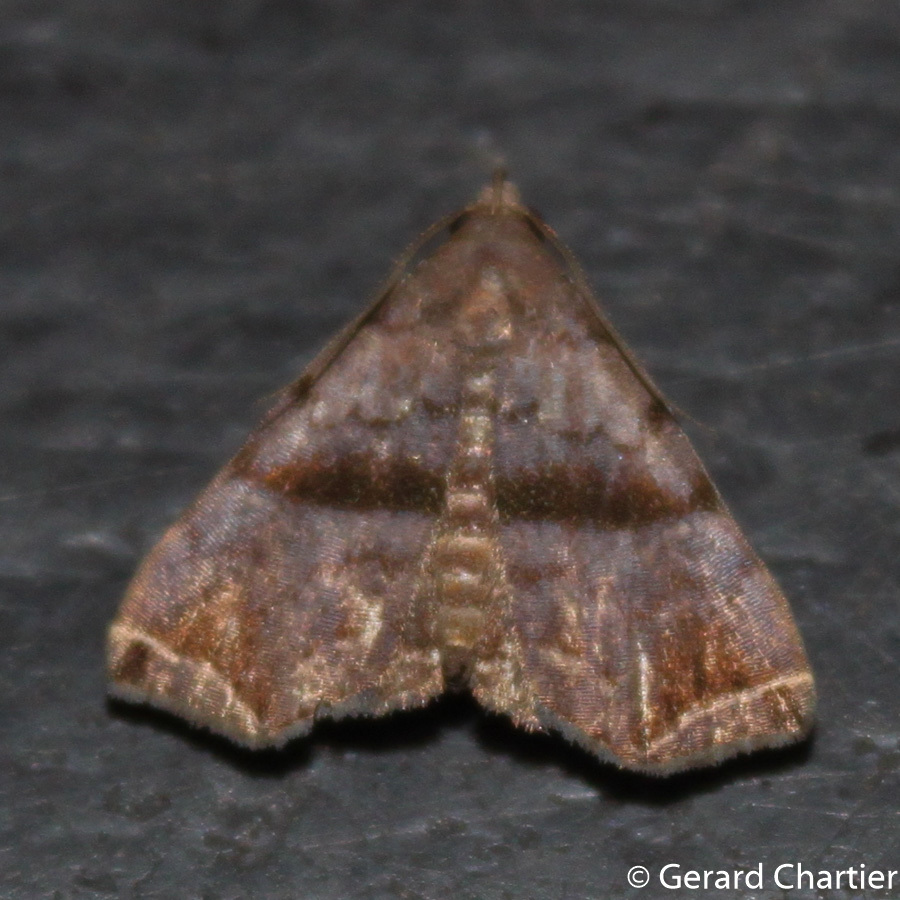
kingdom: Animalia
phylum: Arthropoda
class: Insecta
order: Lepidoptera
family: Erebidae
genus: Polypogon
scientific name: Polypogon biasalis
